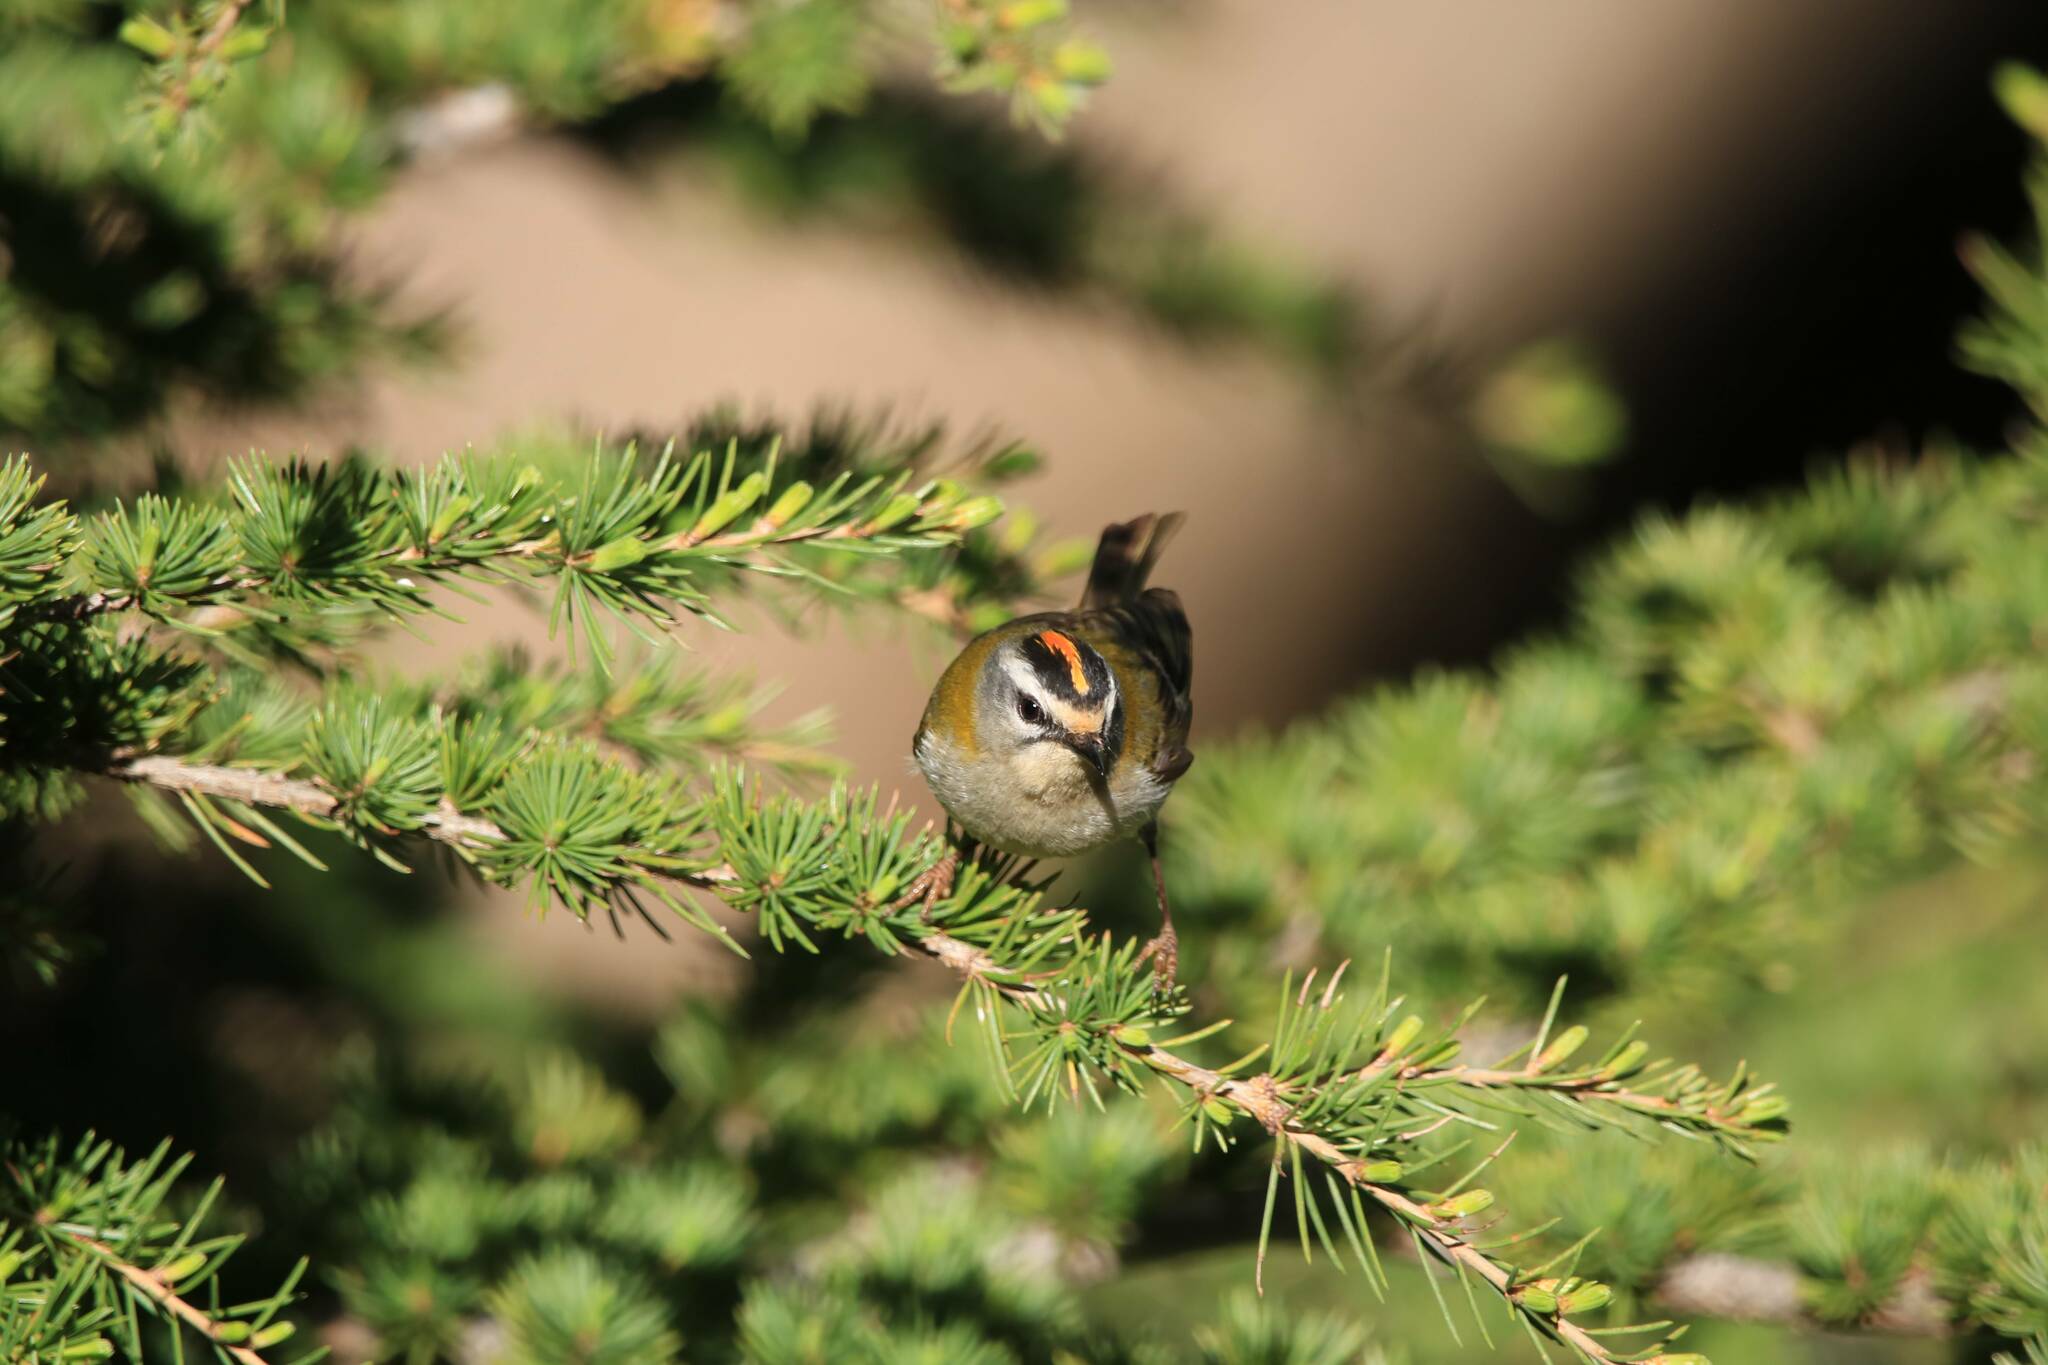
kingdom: Animalia
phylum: Chordata
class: Aves
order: Passeriformes
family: Regulidae
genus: Regulus
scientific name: Regulus ignicapilla
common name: Firecrest
